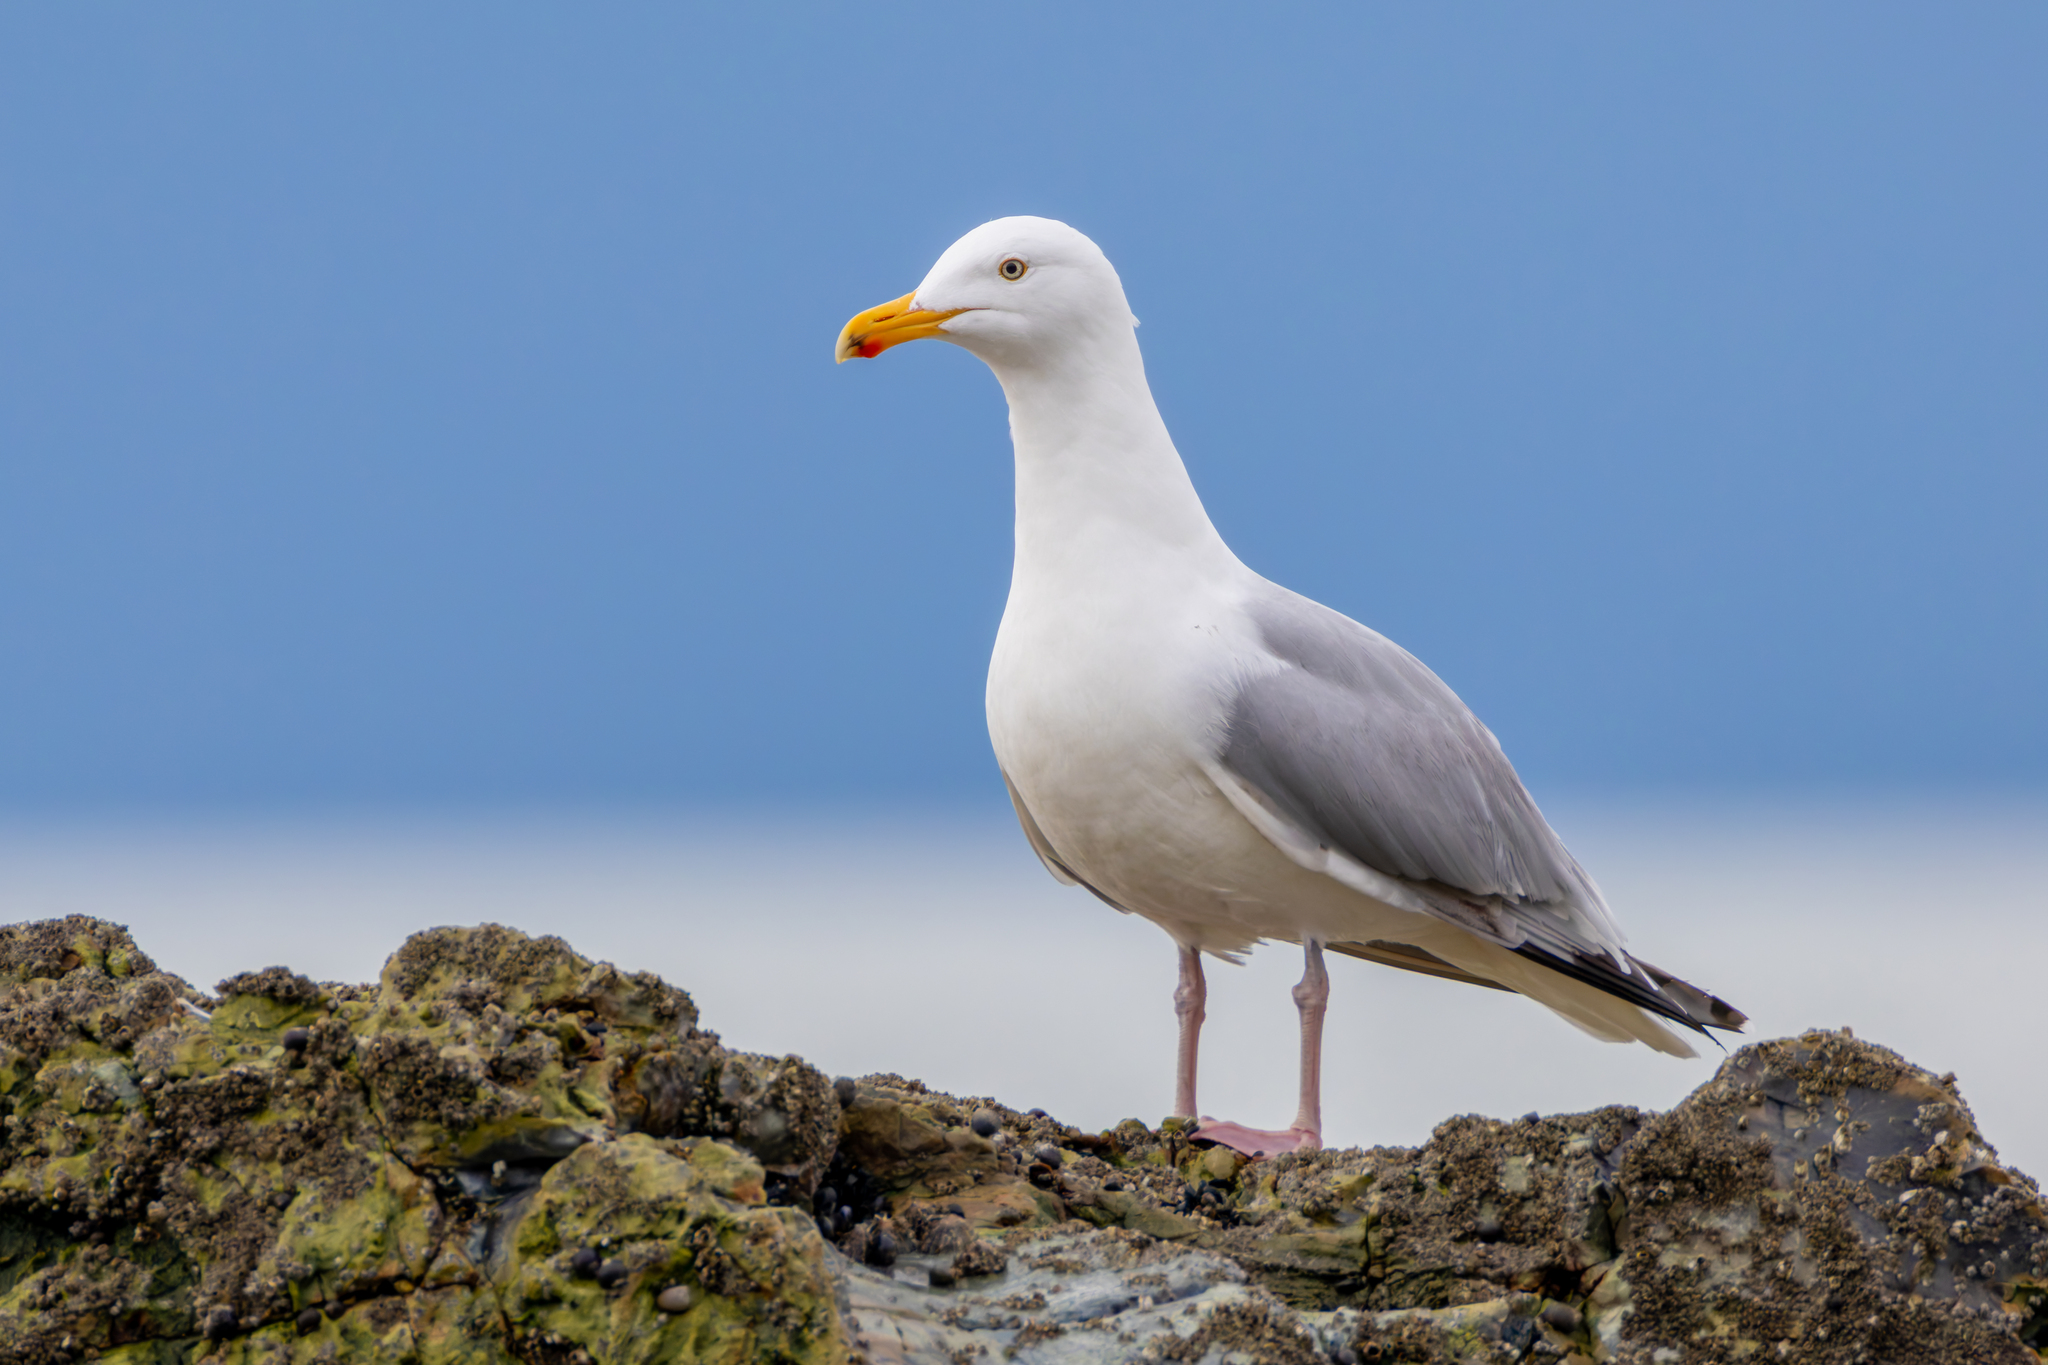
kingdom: Animalia
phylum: Chordata
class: Aves
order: Charadriiformes
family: Laridae
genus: Larus
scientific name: Larus argentatus
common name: Herring gull
